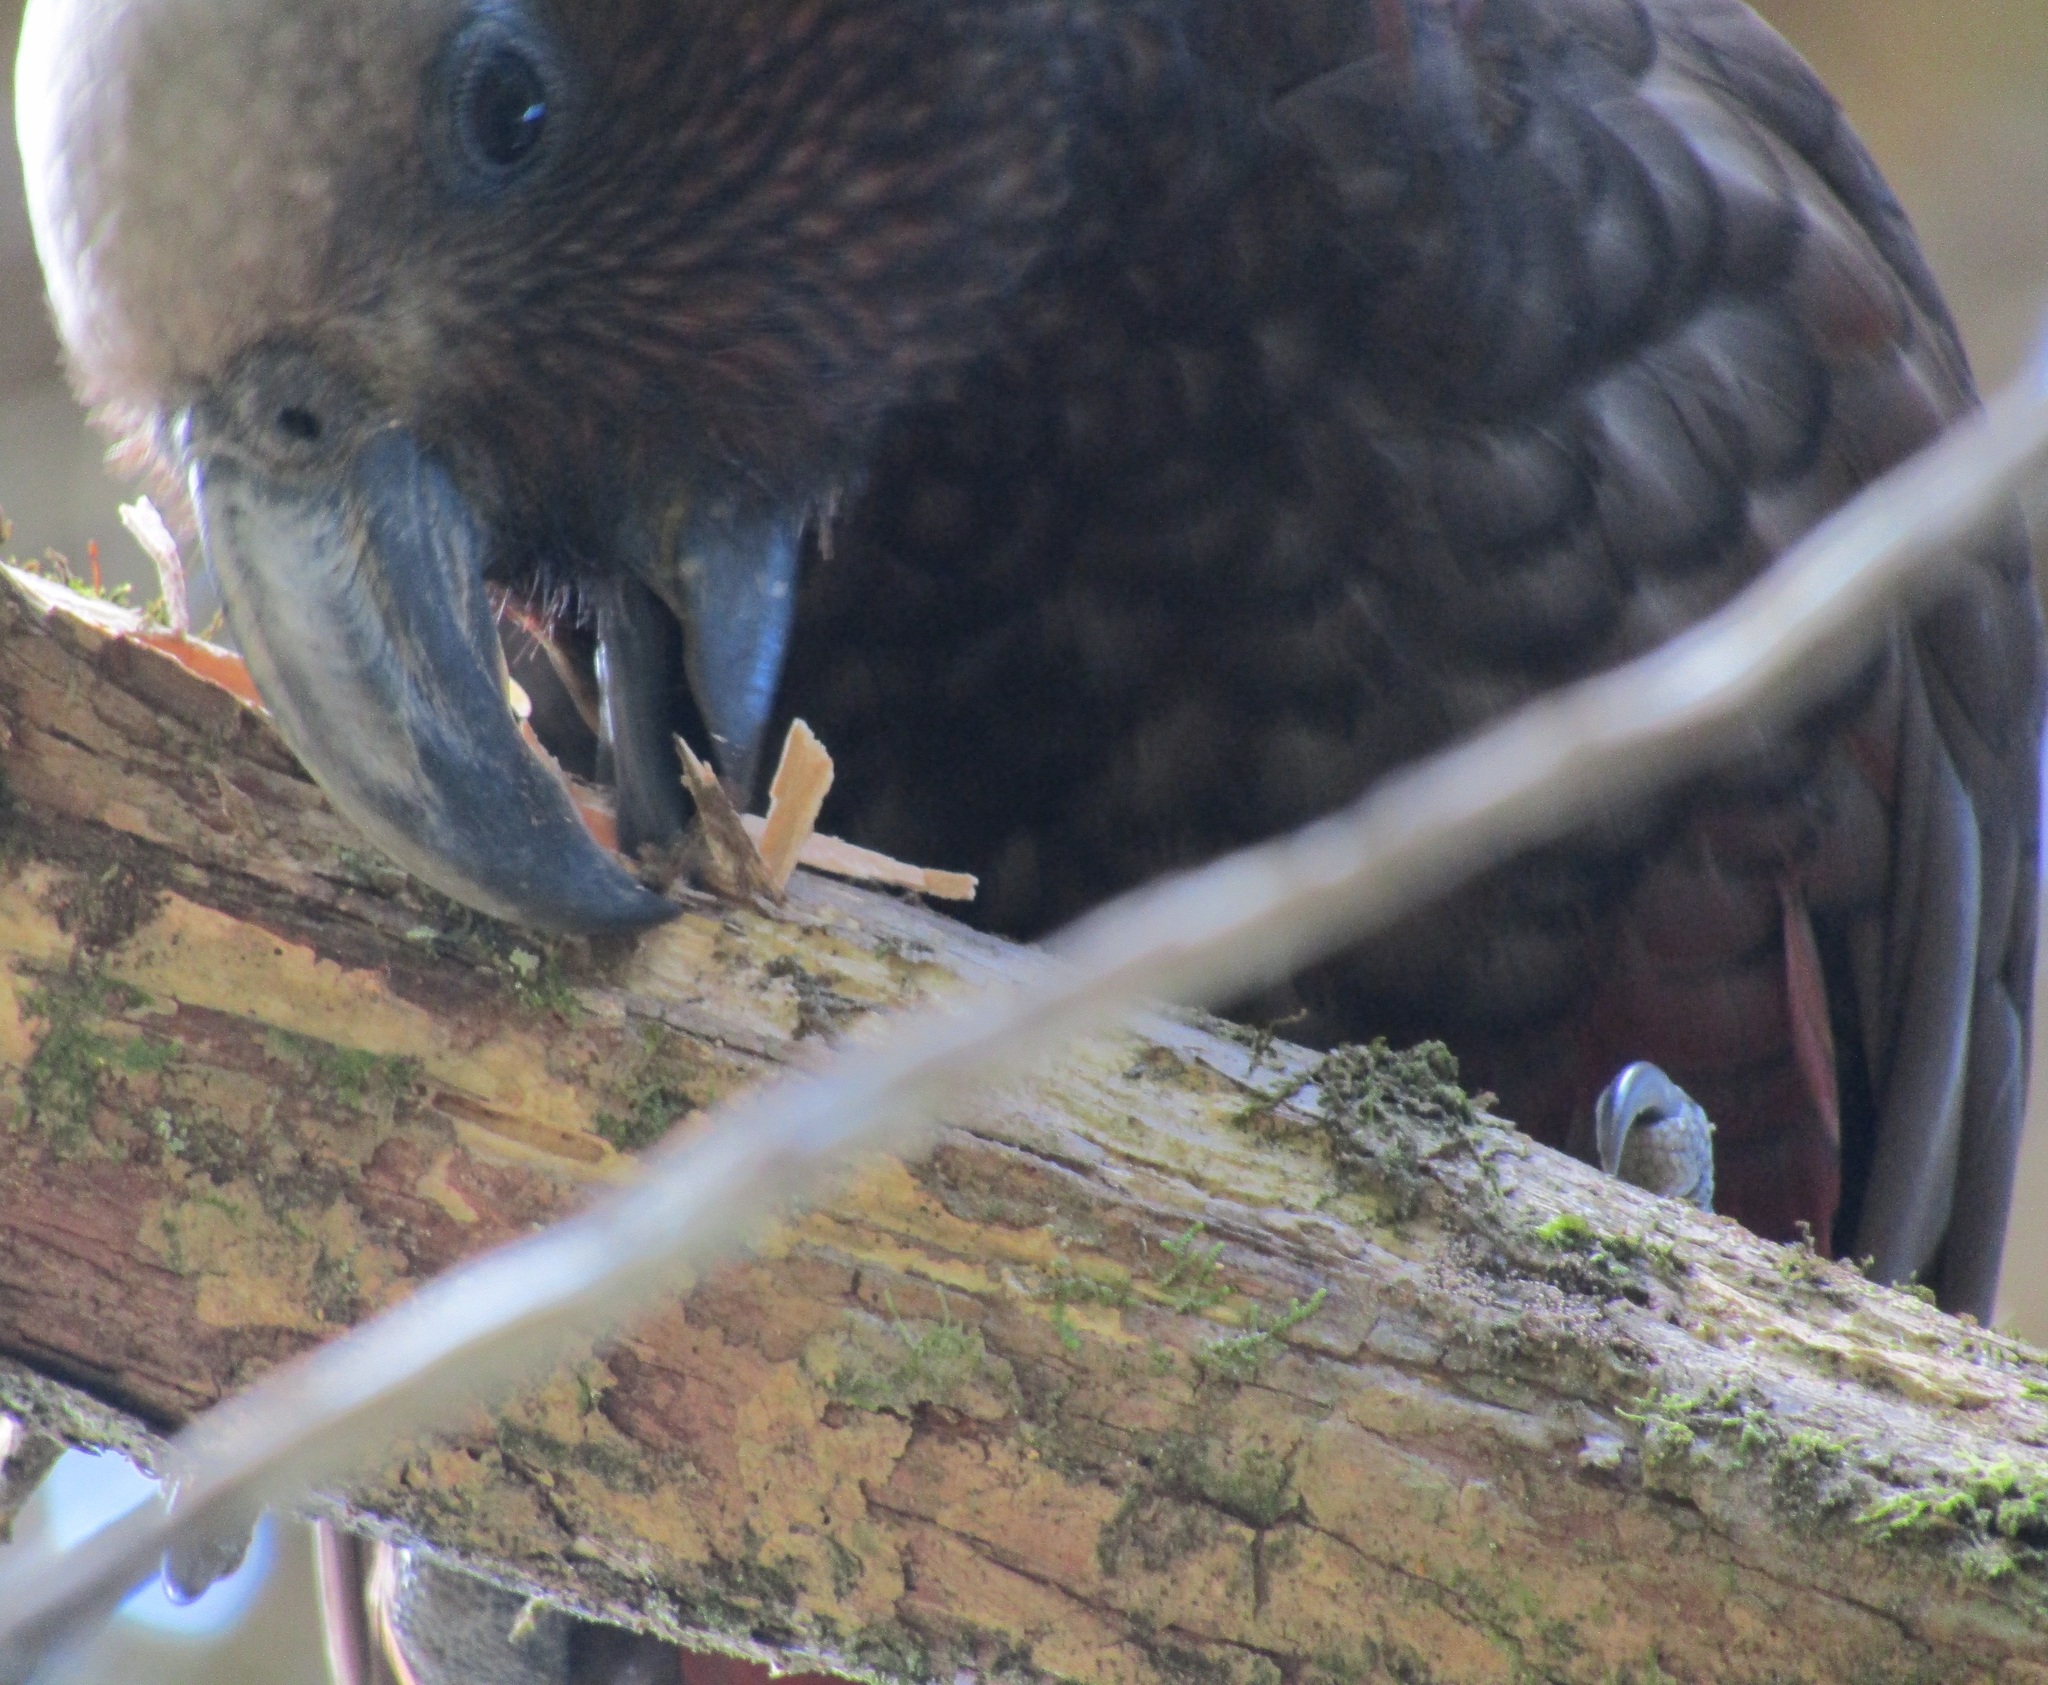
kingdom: Animalia
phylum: Chordata
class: Aves
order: Psittaciformes
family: Psittacidae
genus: Nestor
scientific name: Nestor meridionalis
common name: New zealand kaka
